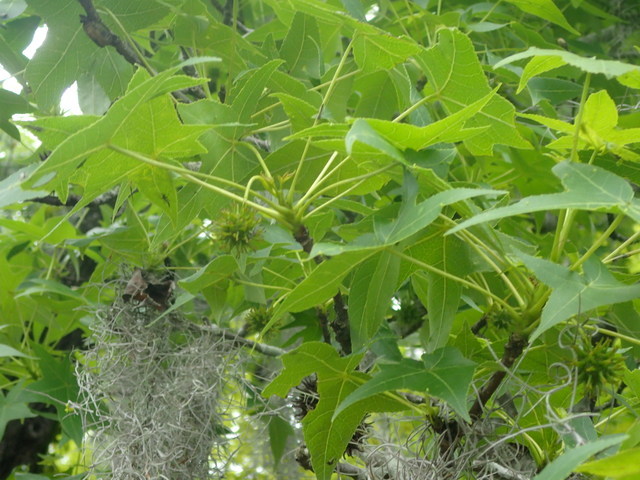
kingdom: Plantae
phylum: Tracheophyta
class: Magnoliopsida
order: Saxifragales
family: Altingiaceae
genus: Liquidambar
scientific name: Liquidambar styraciflua
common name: Sweet gum
